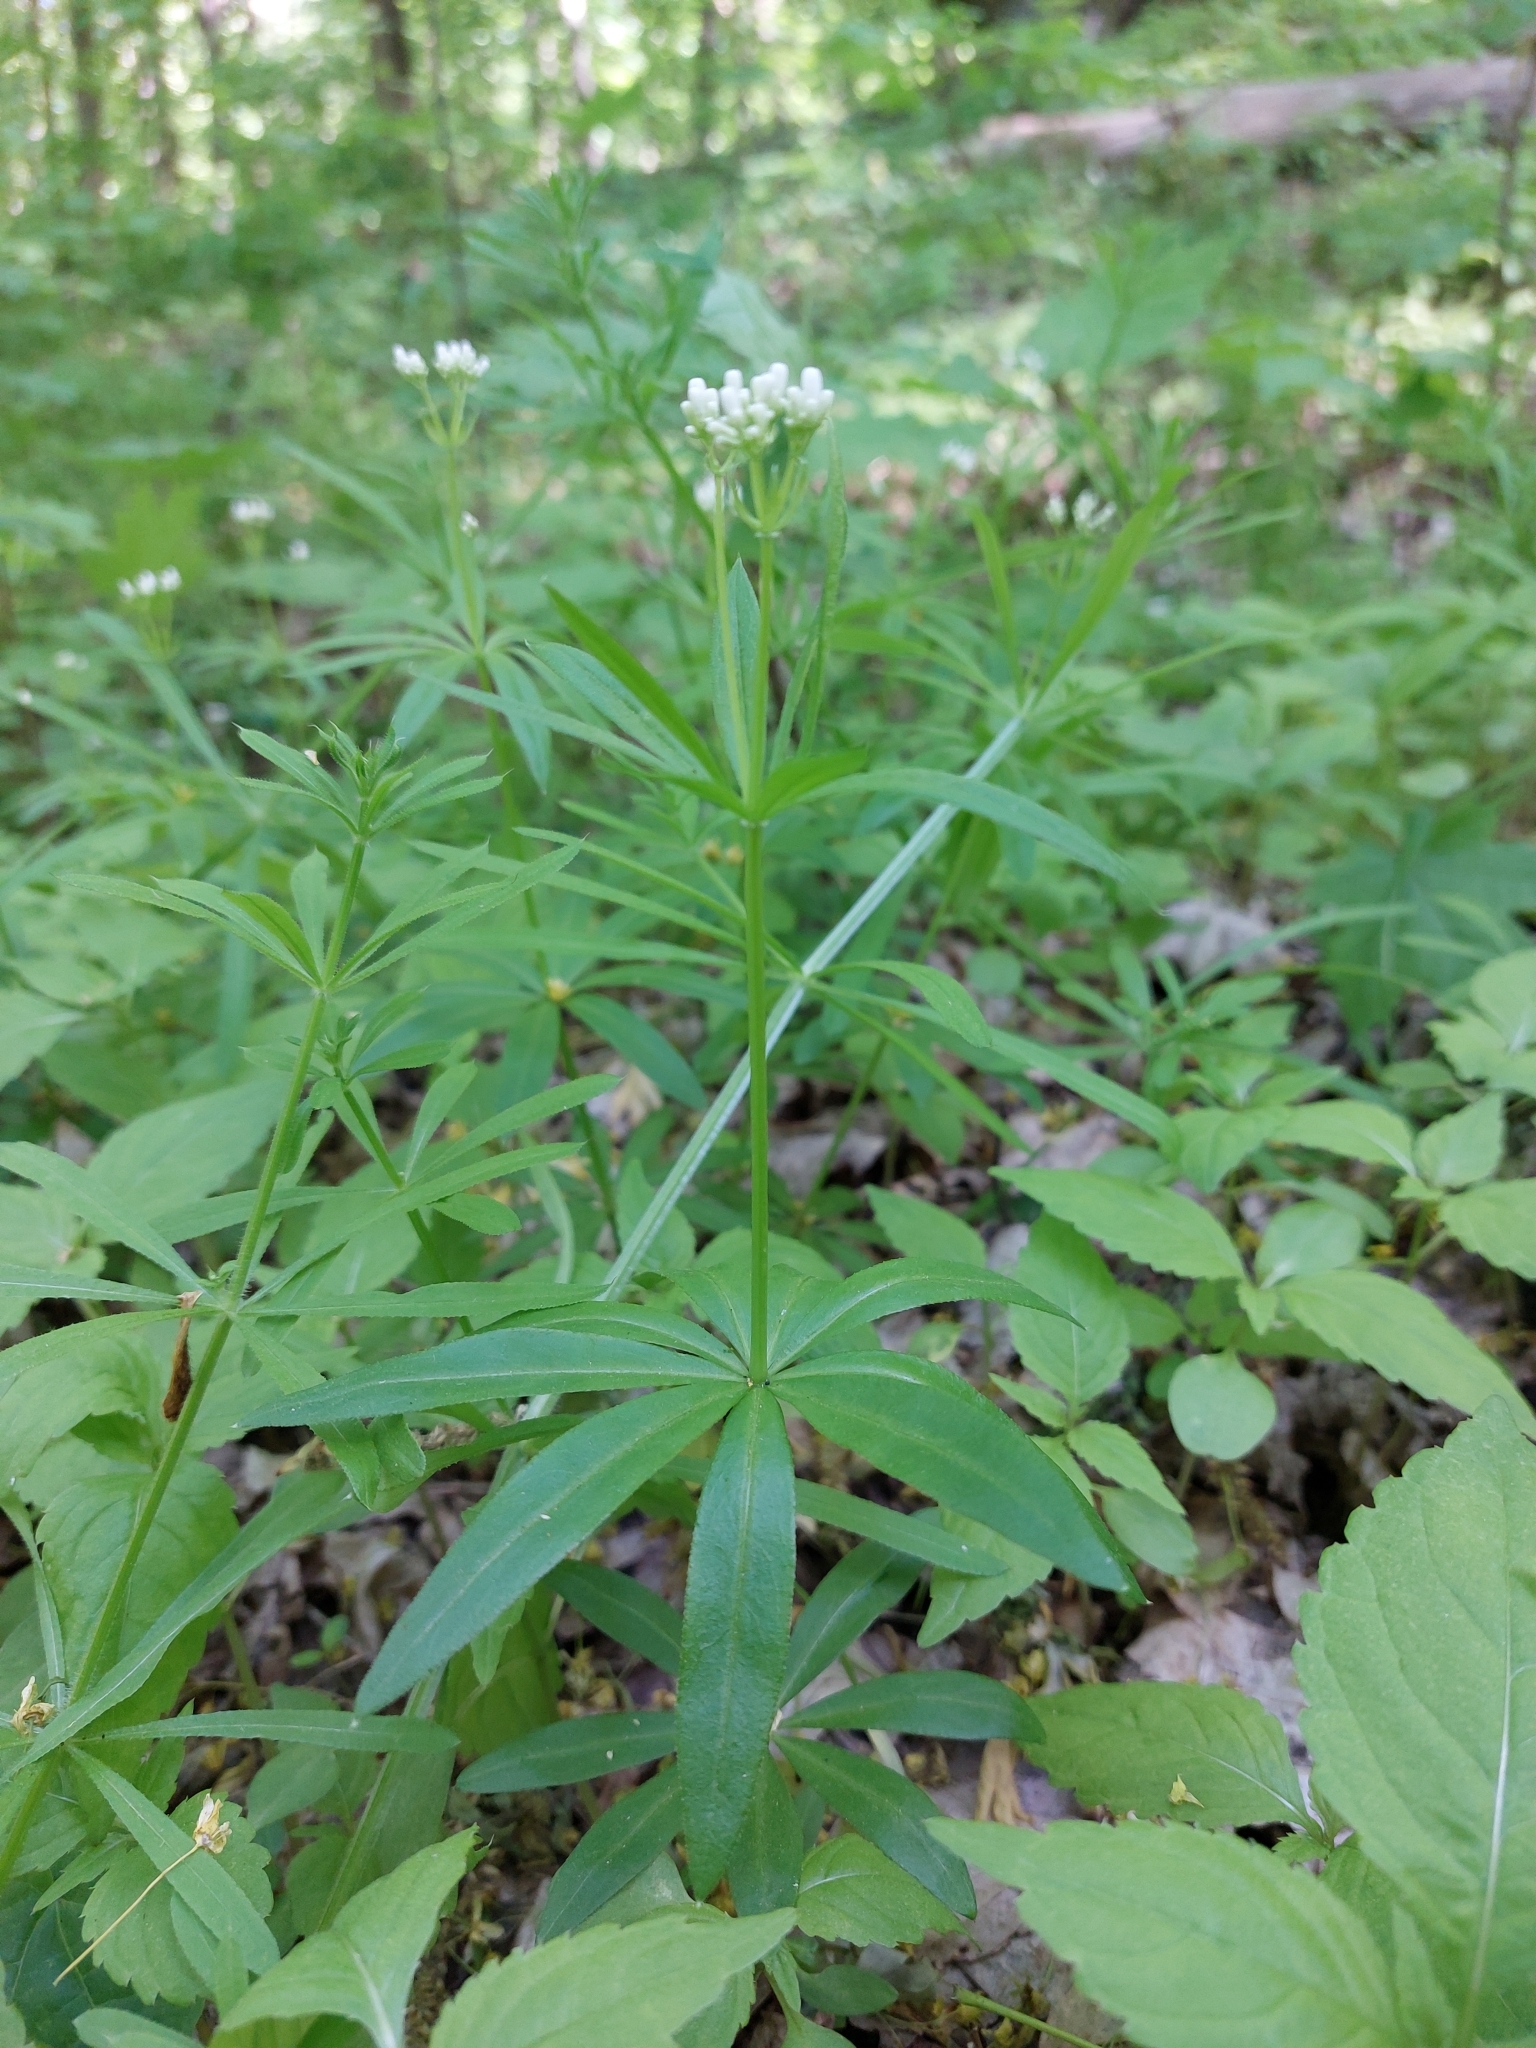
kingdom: Plantae
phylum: Tracheophyta
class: Magnoliopsida
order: Gentianales
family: Rubiaceae
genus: Galium
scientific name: Galium odoratum
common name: Sweet woodruff
